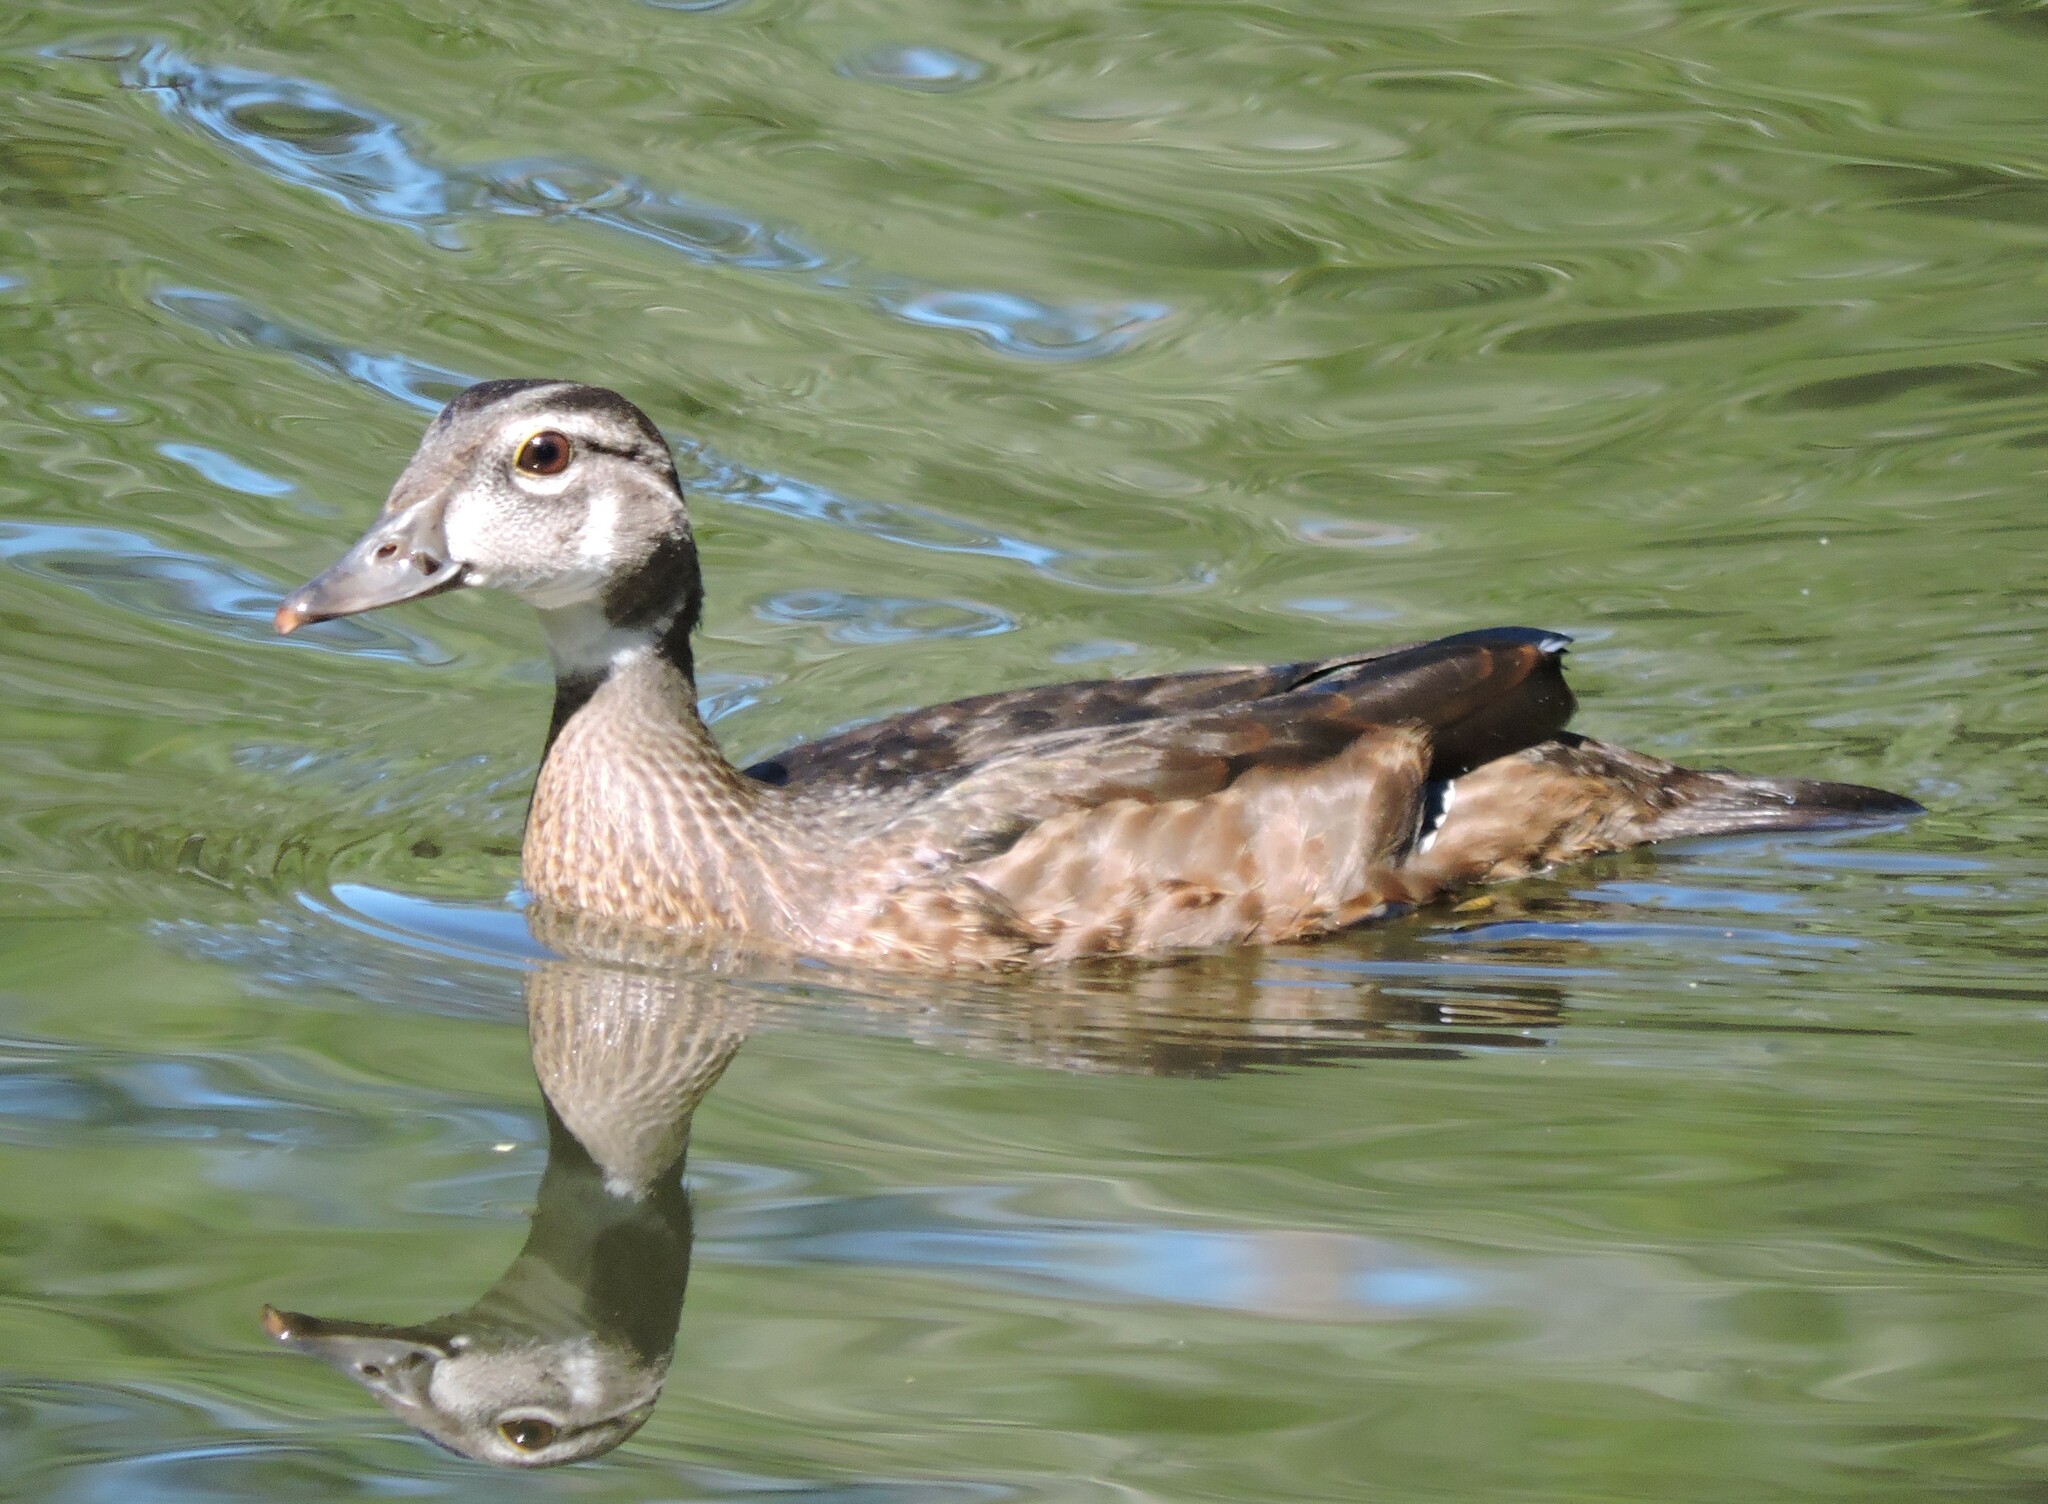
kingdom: Animalia
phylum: Chordata
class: Aves
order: Anseriformes
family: Anatidae
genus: Aix
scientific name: Aix sponsa
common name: Wood duck
